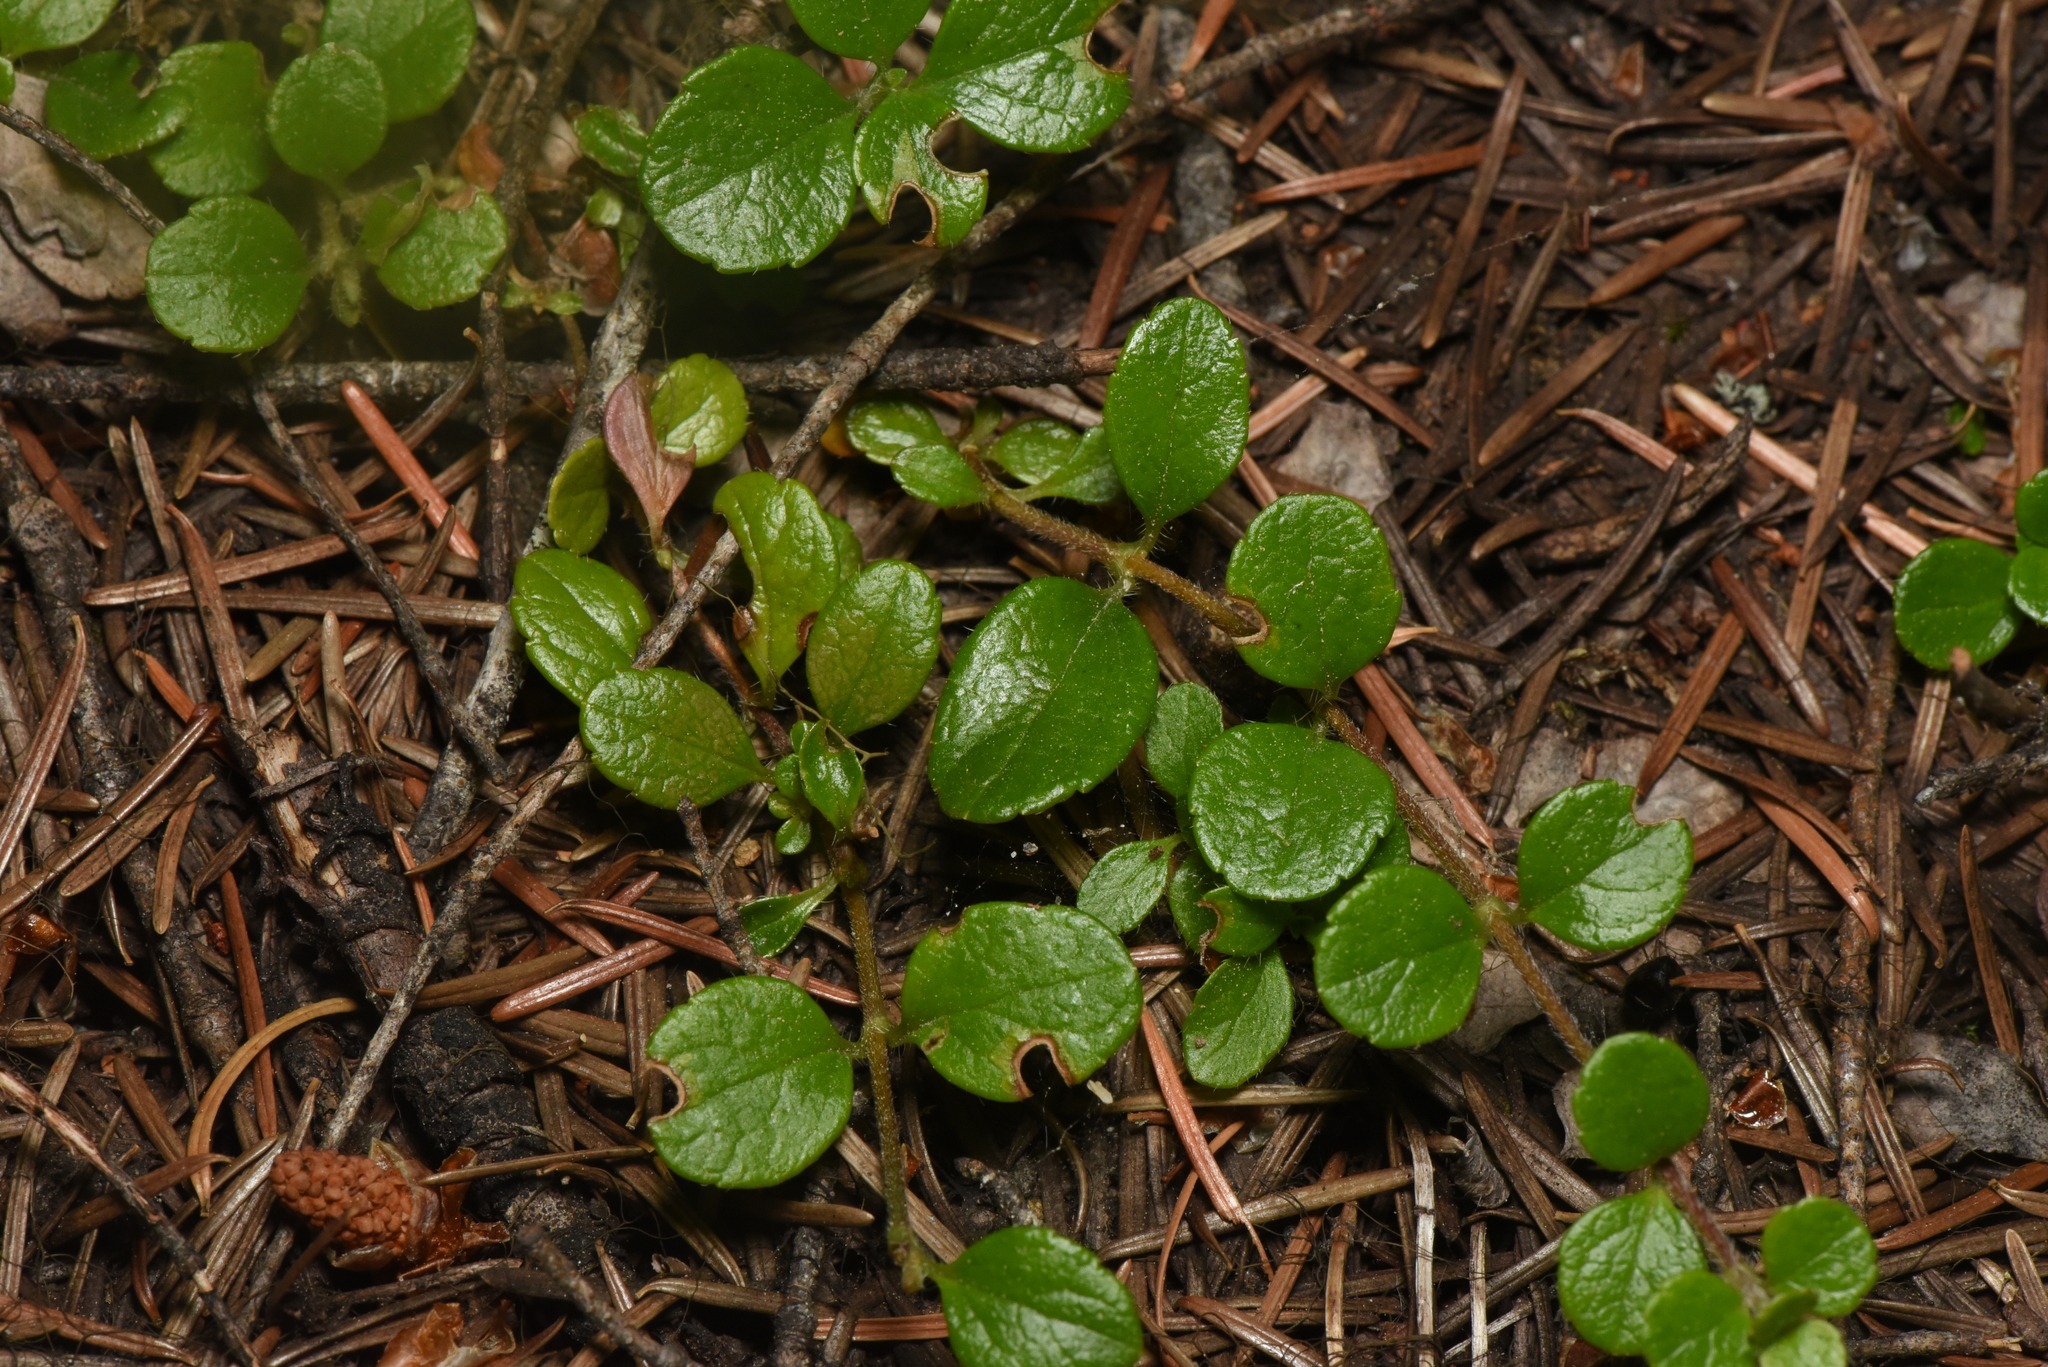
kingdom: Plantae
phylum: Tracheophyta
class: Magnoliopsida
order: Dipsacales
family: Caprifoliaceae
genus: Linnaea
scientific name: Linnaea borealis
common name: Twinflower
